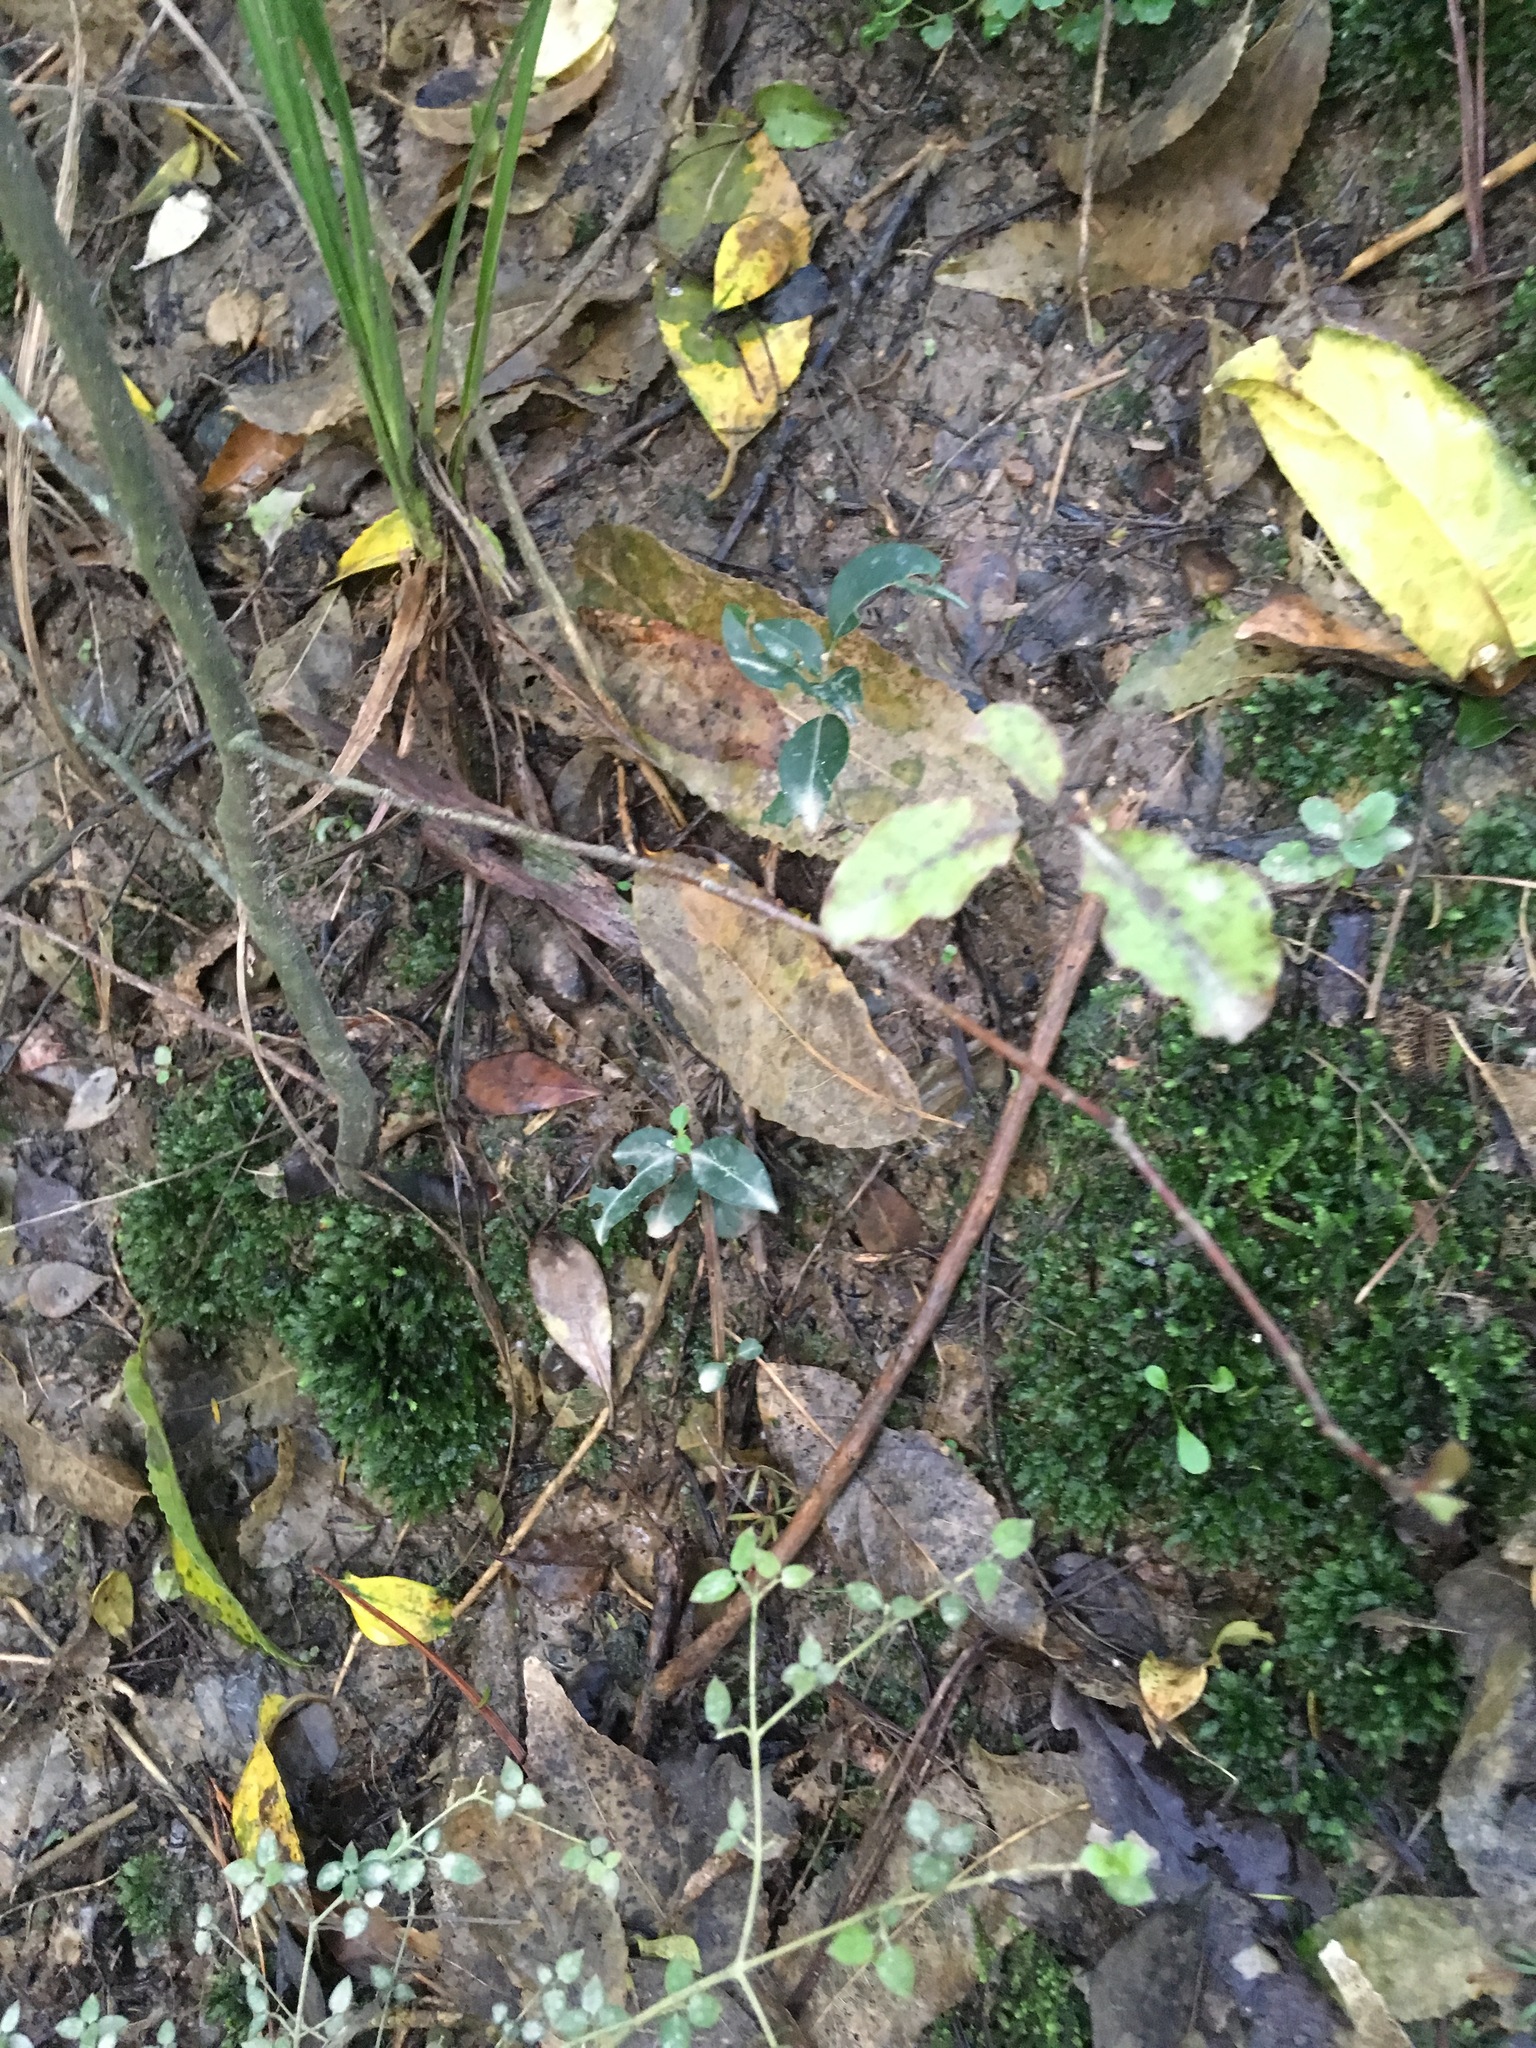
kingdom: Plantae
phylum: Tracheophyta
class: Magnoliopsida
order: Ericales
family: Primulaceae
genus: Myrsine
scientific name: Myrsine australis
